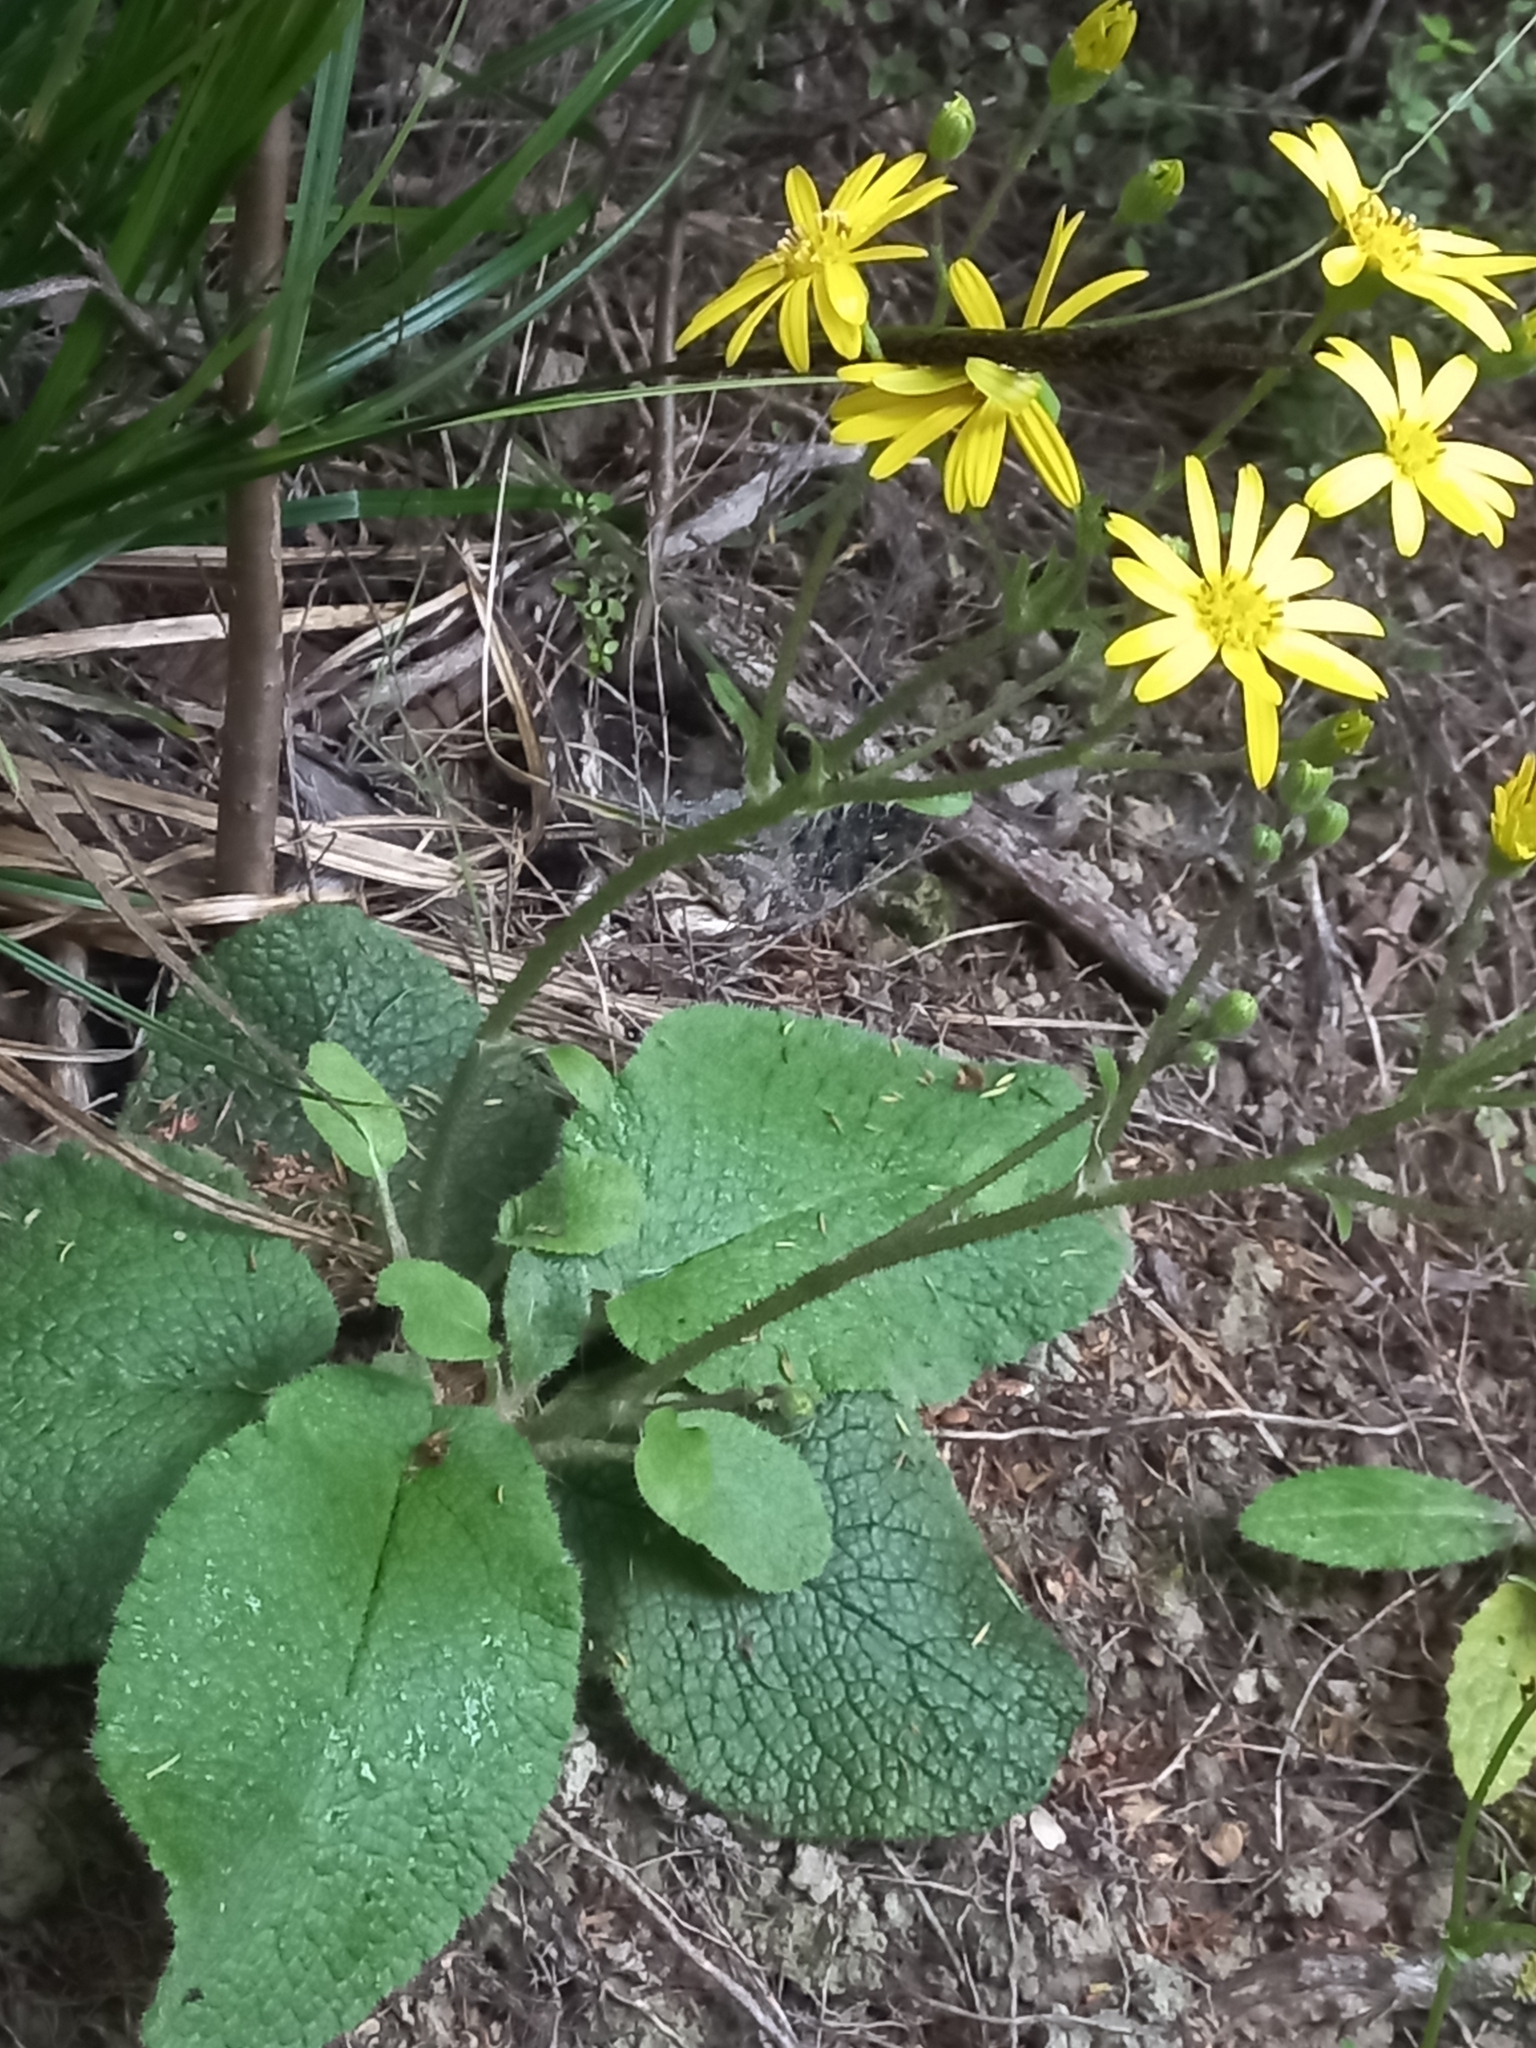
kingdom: Plantae
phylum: Tracheophyta
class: Magnoliopsida
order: Asterales
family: Asteraceae
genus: Brachyglottis
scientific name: Brachyglottis lagopus
